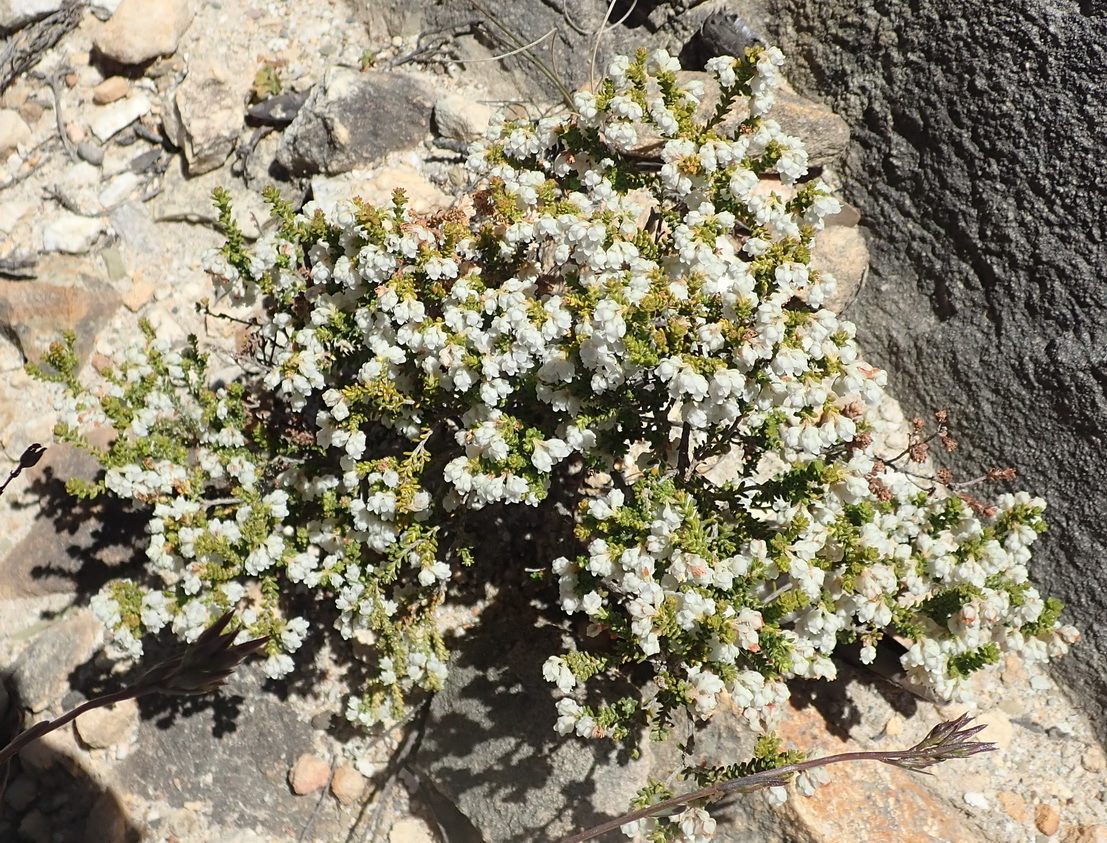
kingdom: Plantae
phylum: Tracheophyta
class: Magnoliopsida
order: Ericales
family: Ericaceae
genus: Erica
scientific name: Erica fimbriata
